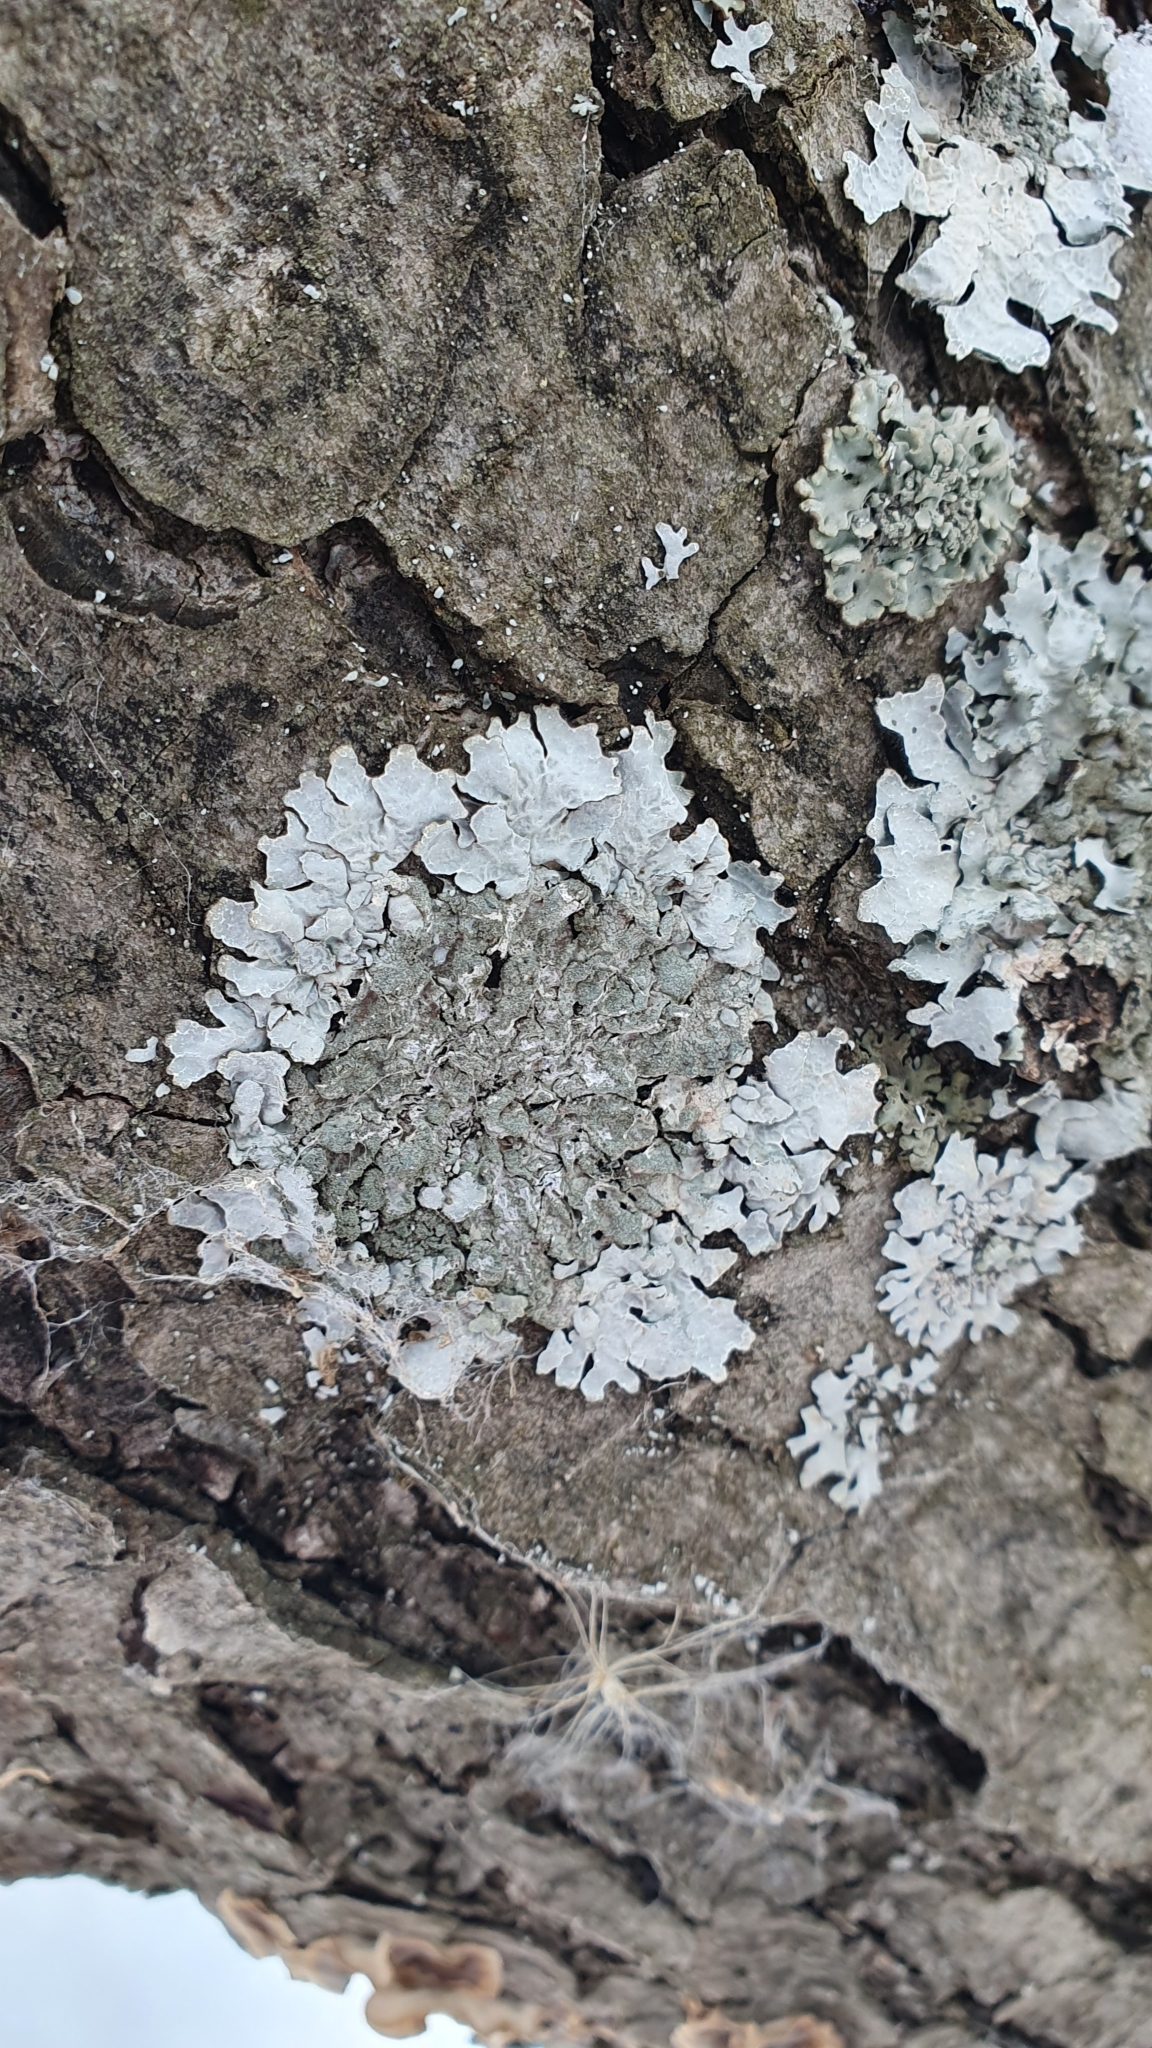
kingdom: Fungi
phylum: Ascomycota
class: Lecanoromycetes
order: Lecanorales
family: Parmeliaceae
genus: Parmelia
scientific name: Parmelia sulcata
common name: Netted shield lichen
